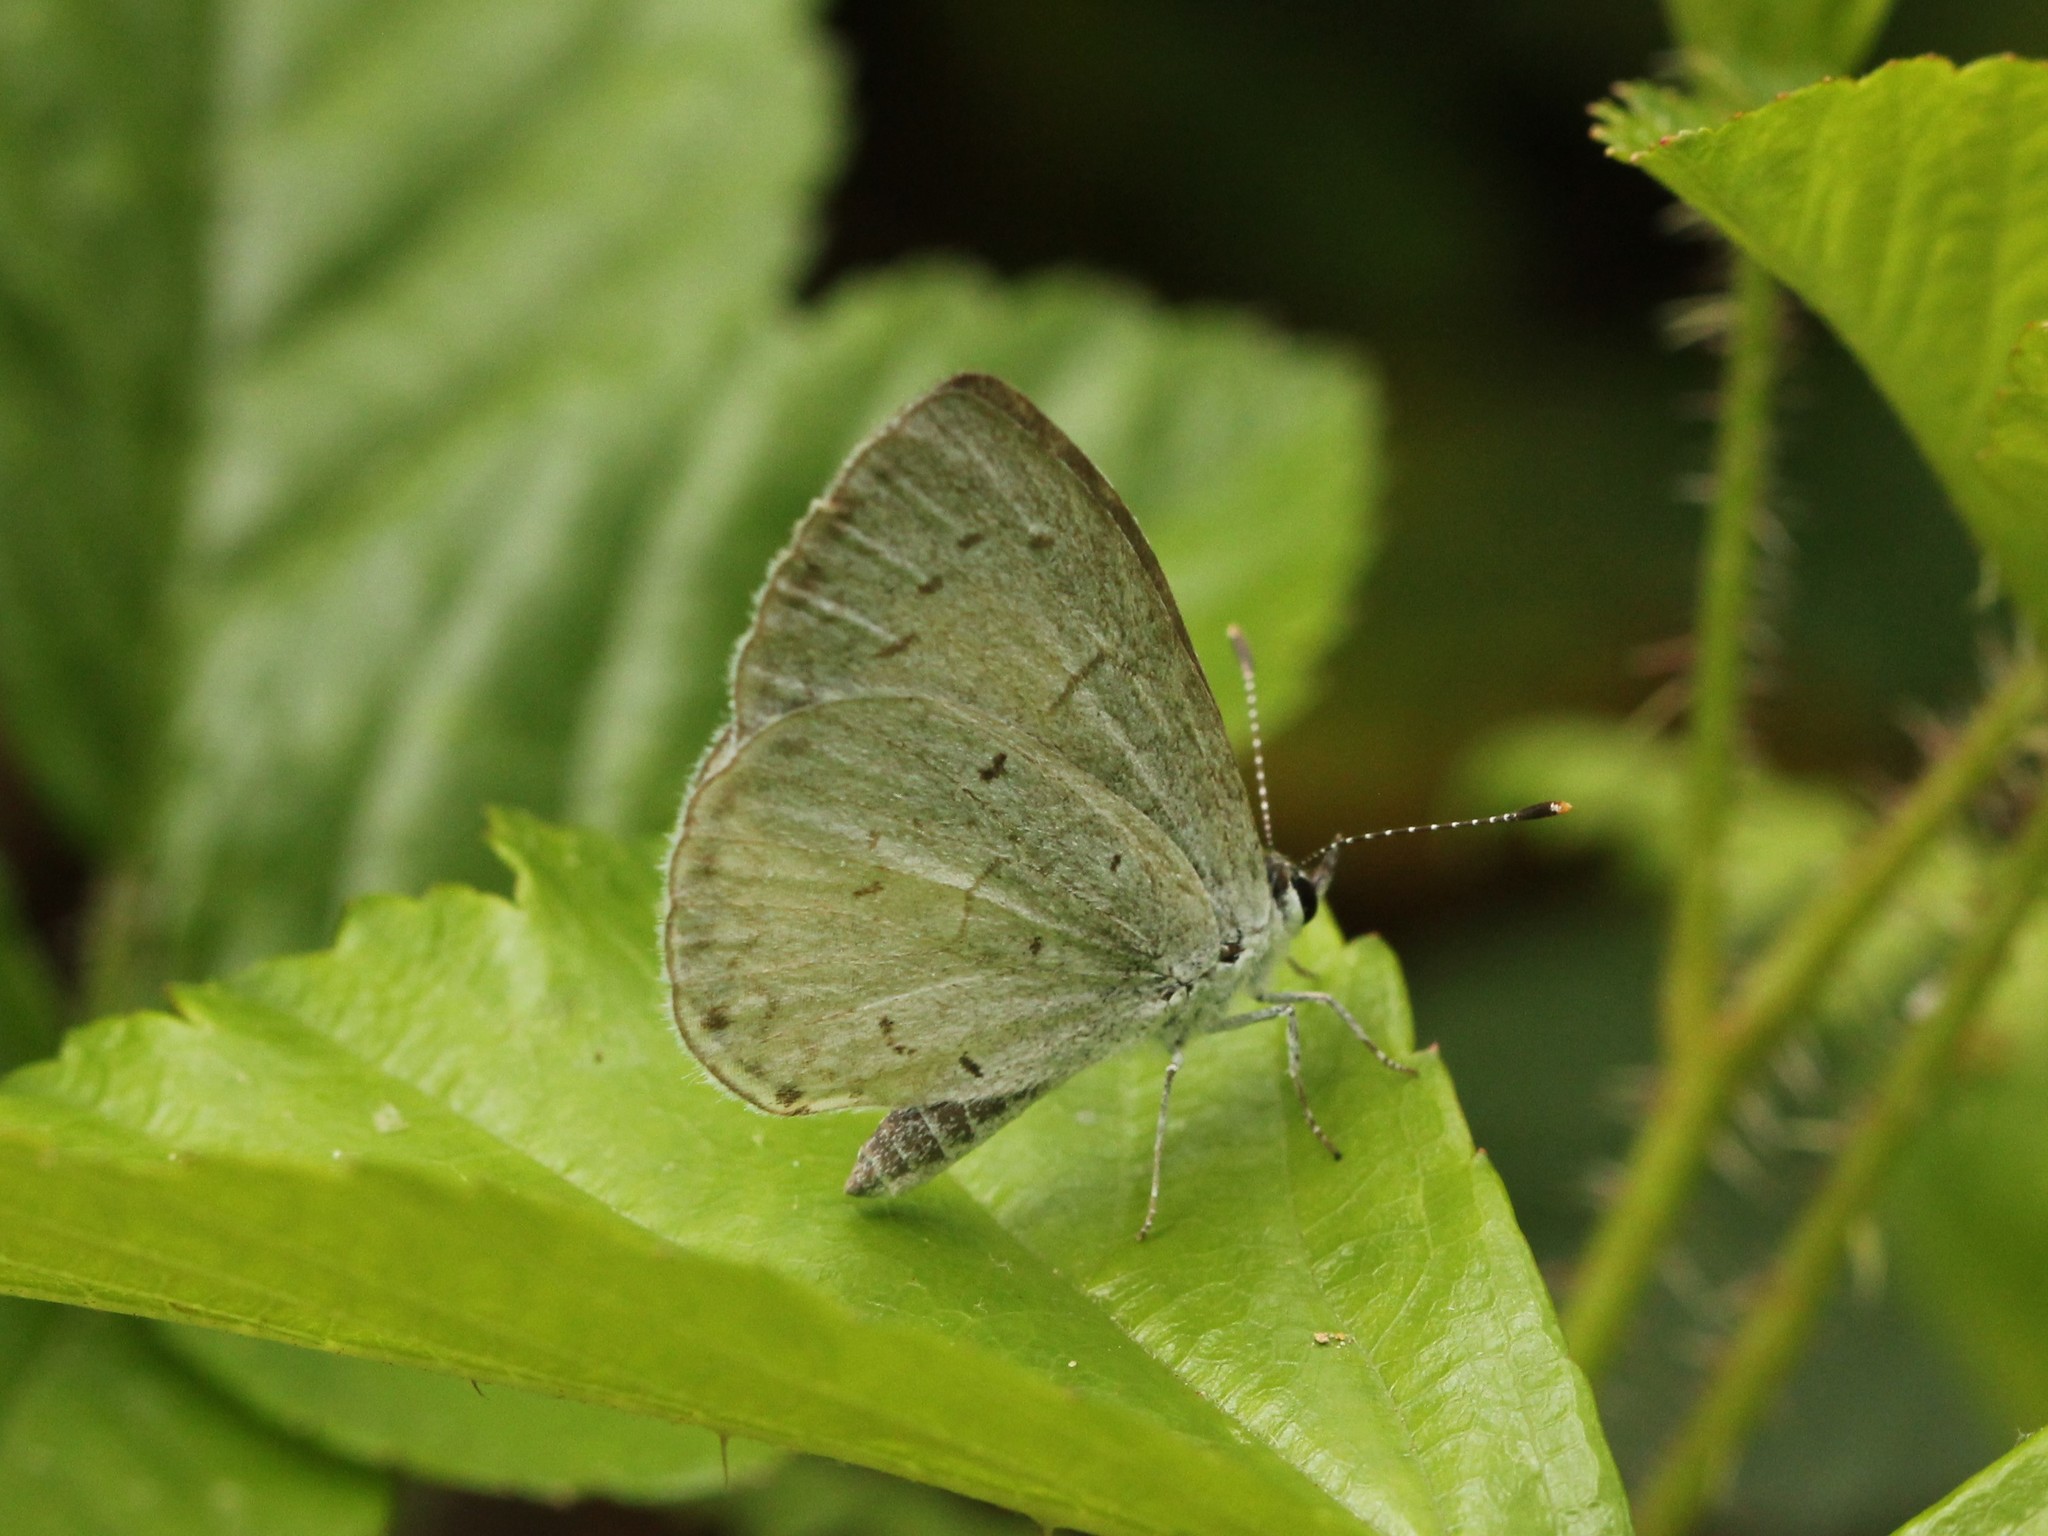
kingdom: Animalia
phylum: Arthropoda
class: Insecta
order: Lepidoptera
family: Lycaenidae
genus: Cyaniris
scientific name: Cyaniris neglecta
